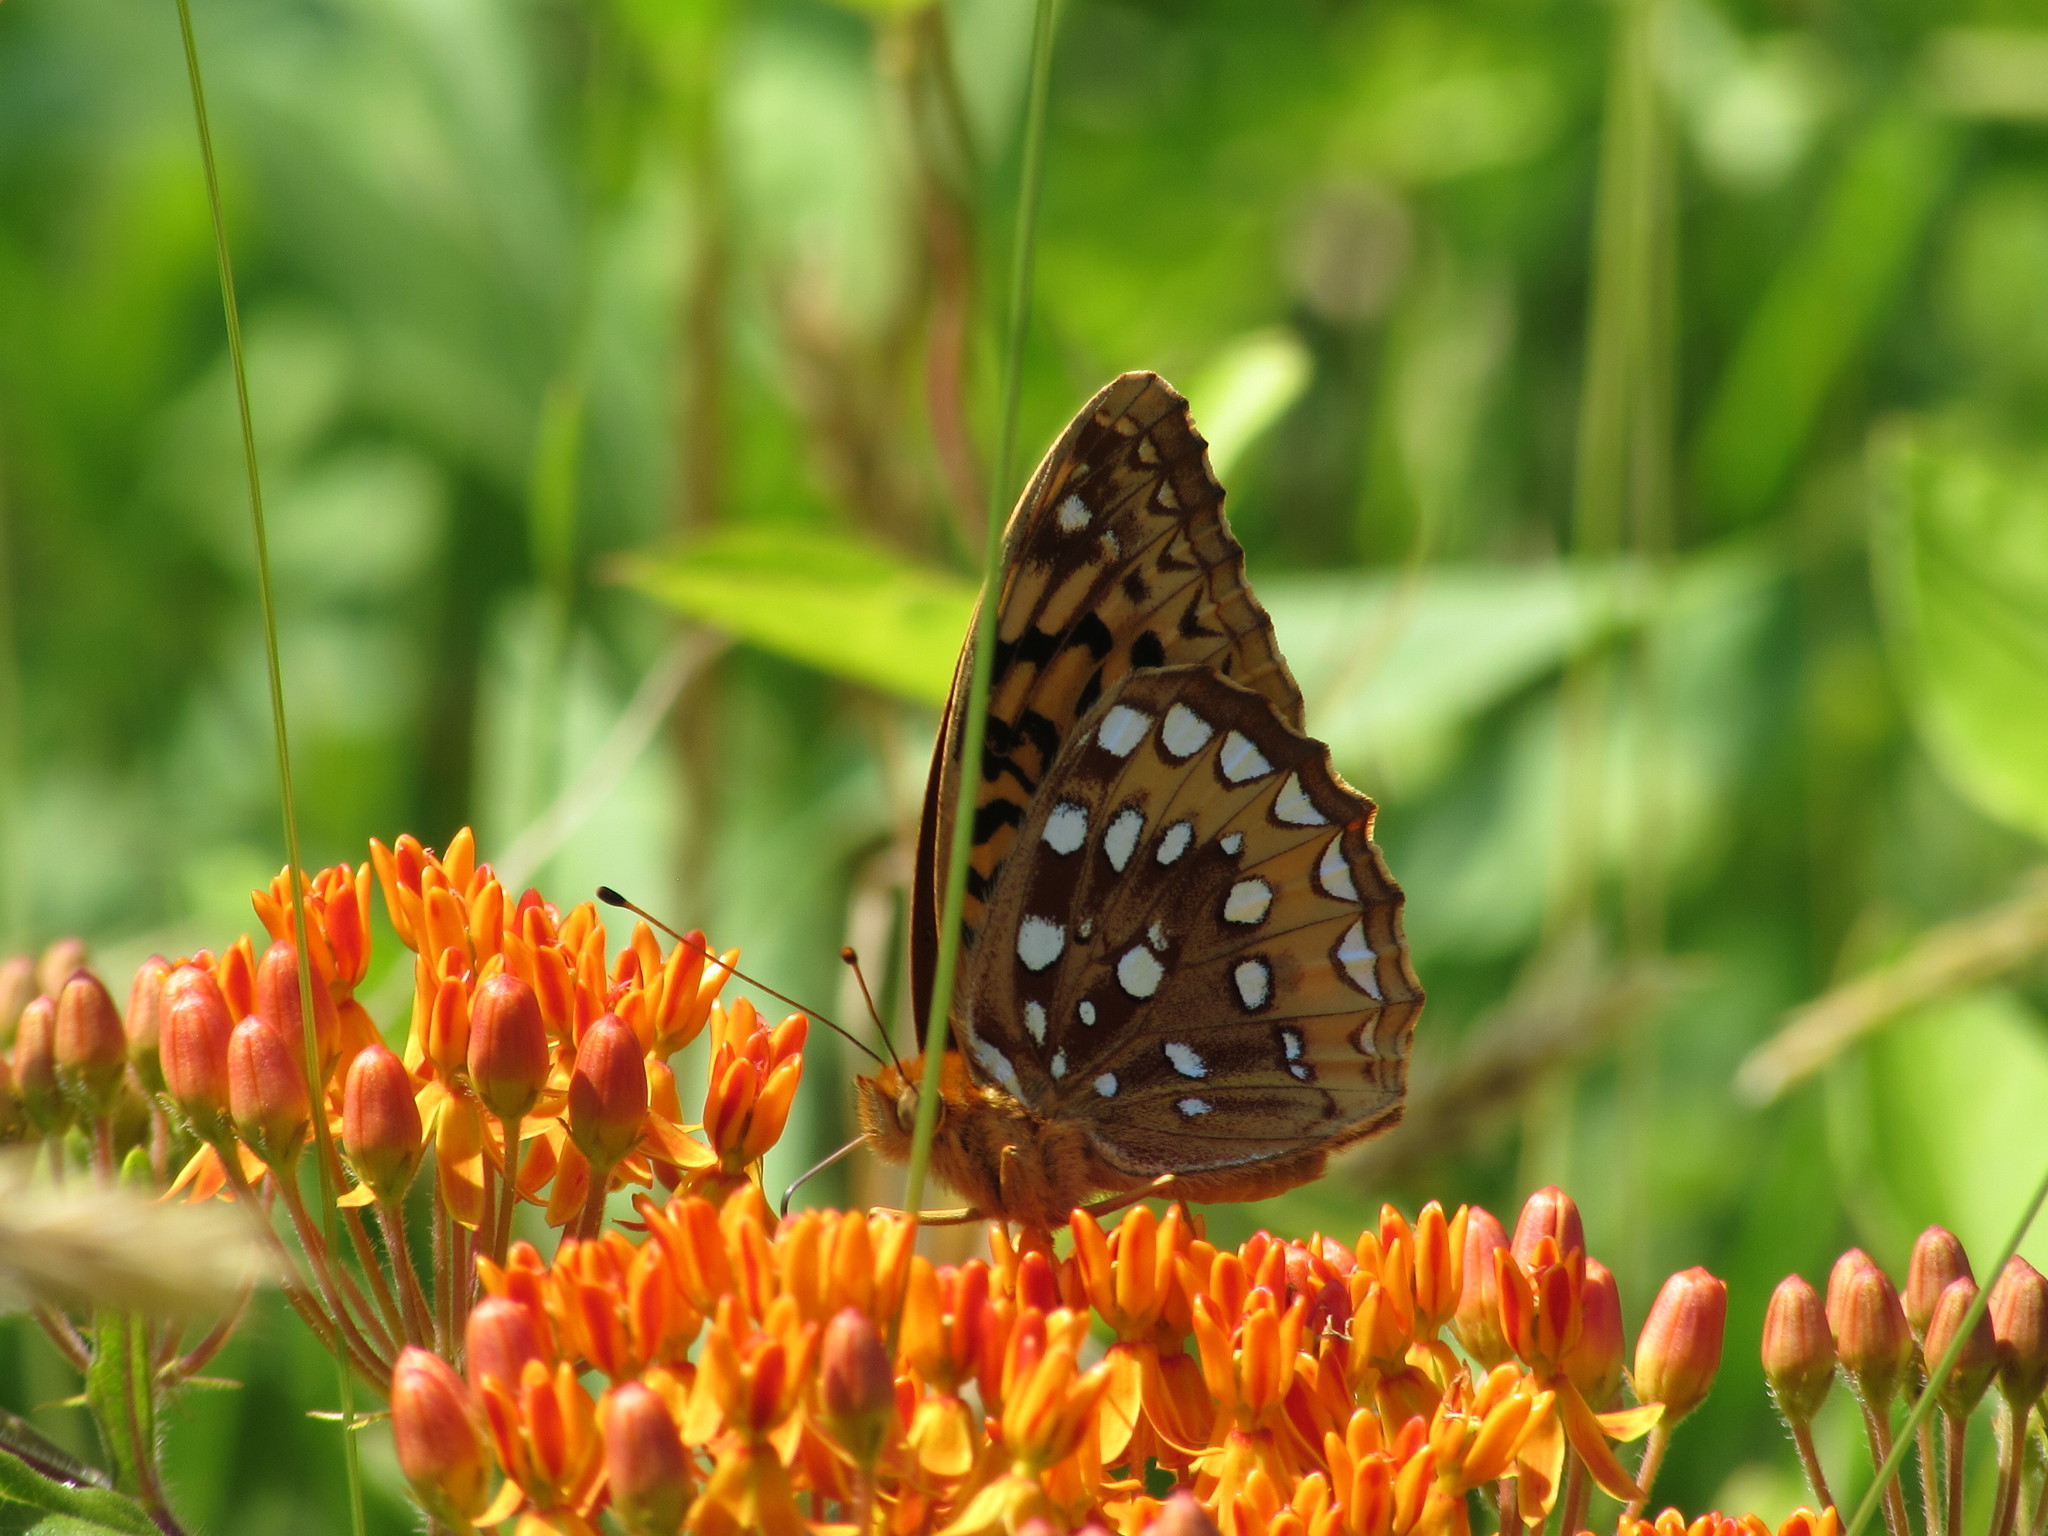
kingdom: Animalia
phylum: Arthropoda
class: Insecta
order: Lepidoptera
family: Nymphalidae
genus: Speyeria
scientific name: Speyeria cybele
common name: Great spangled fritillary
